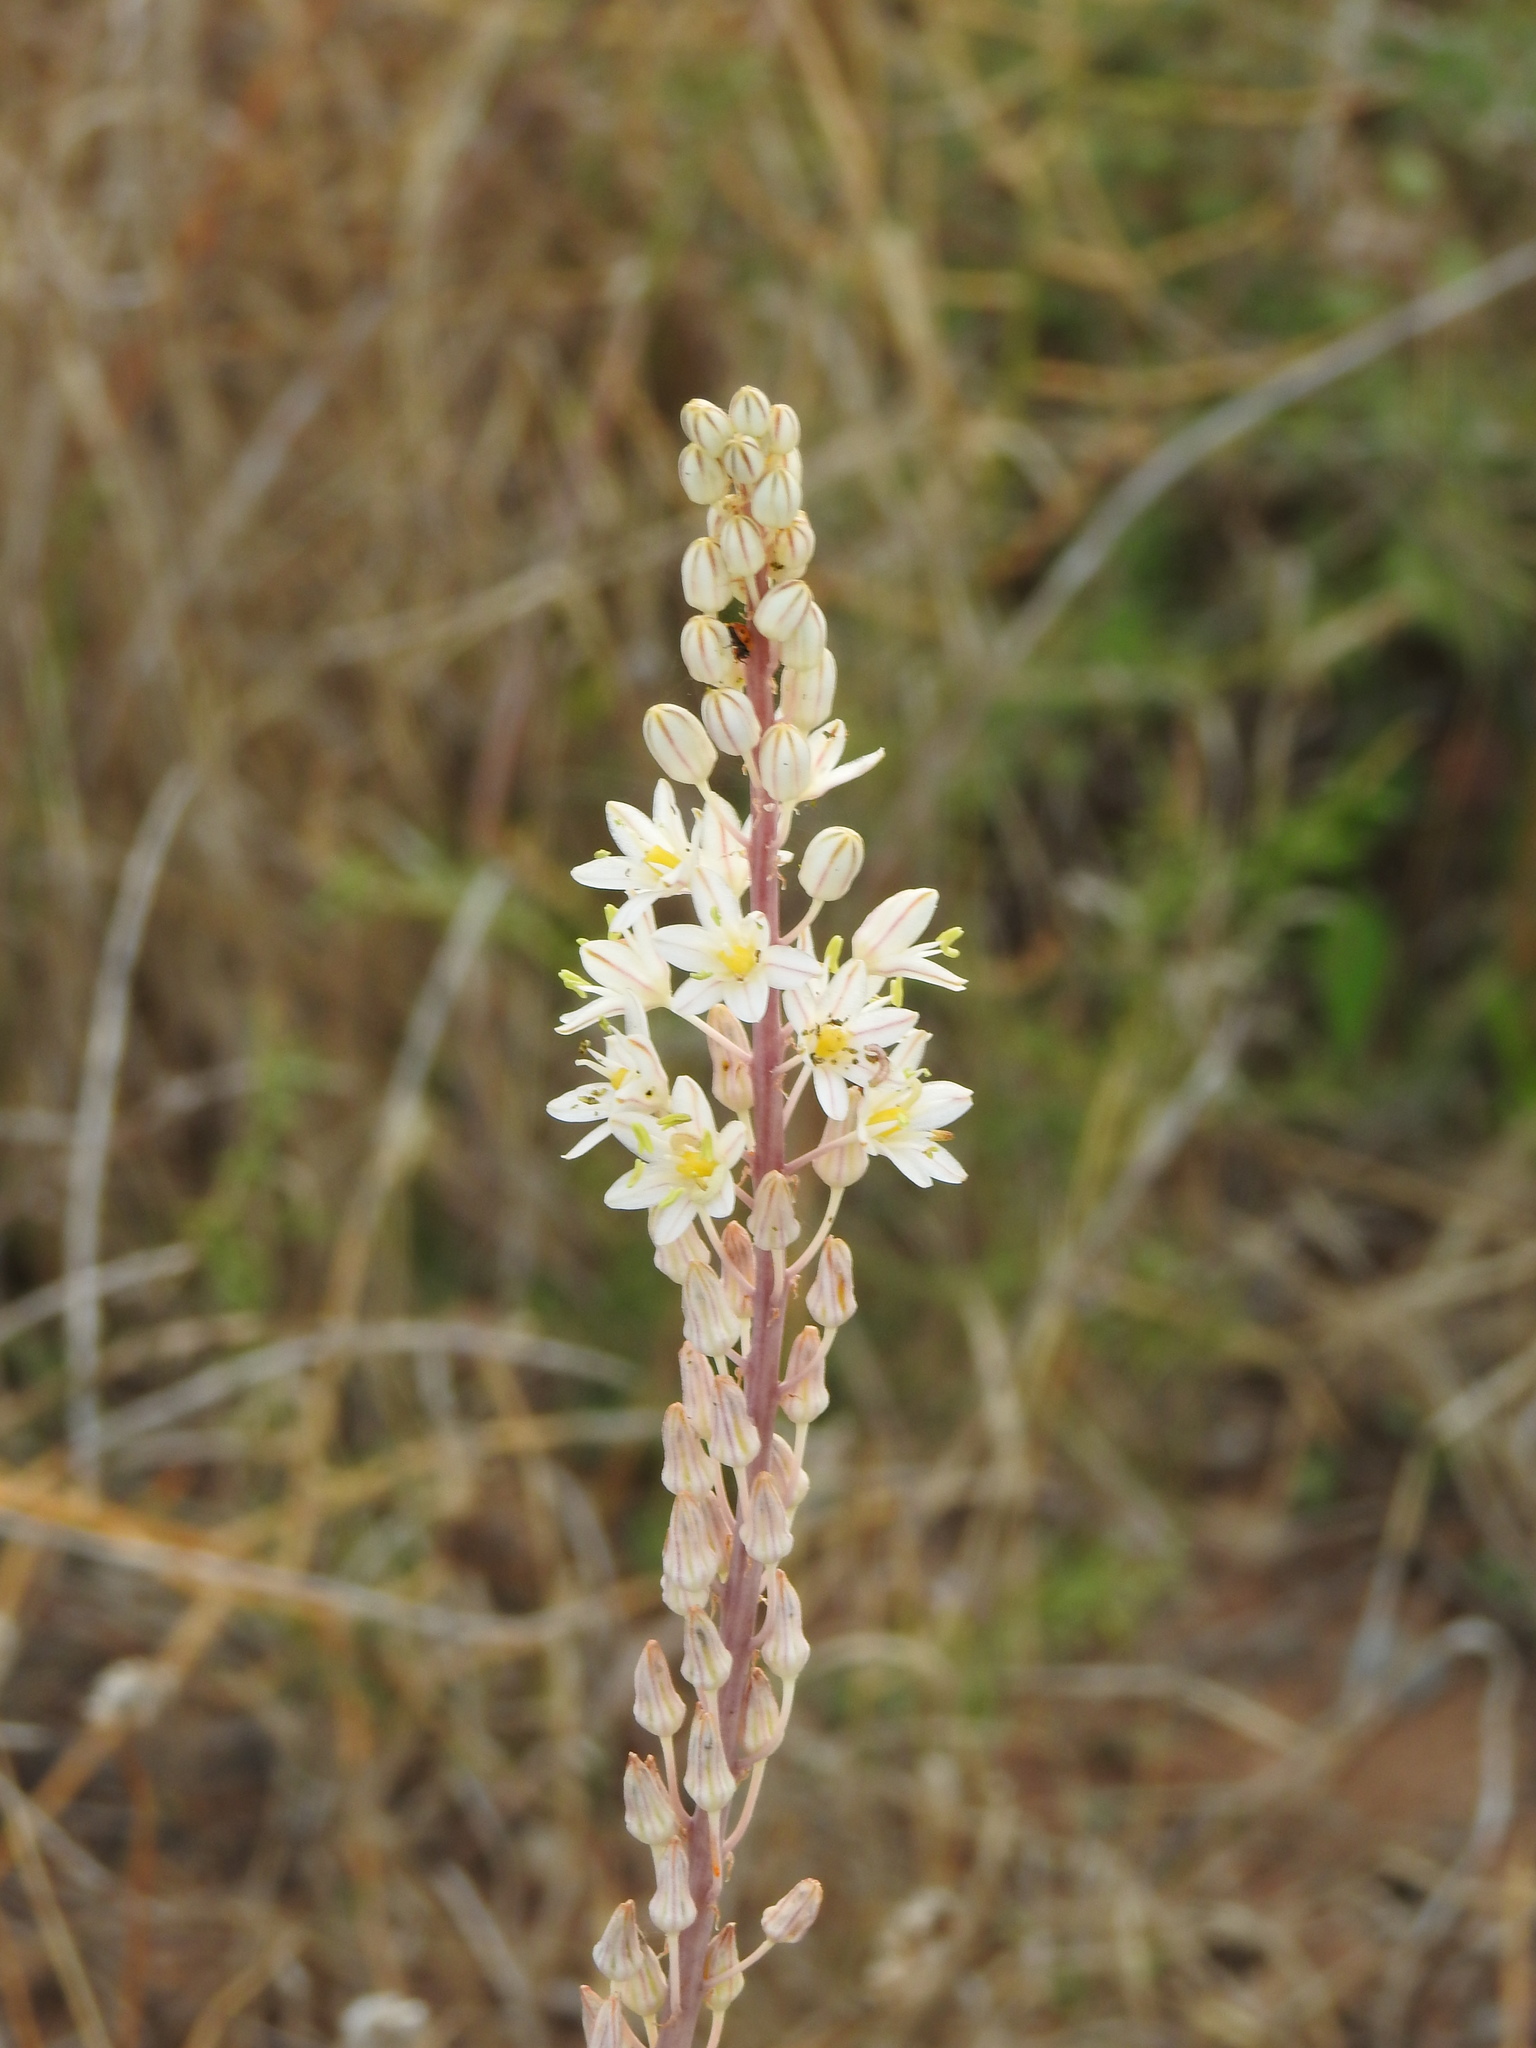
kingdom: Plantae
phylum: Tracheophyta
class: Liliopsida
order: Asparagales
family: Asparagaceae
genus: Drimia
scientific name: Drimia maritima
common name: Maritime squill
